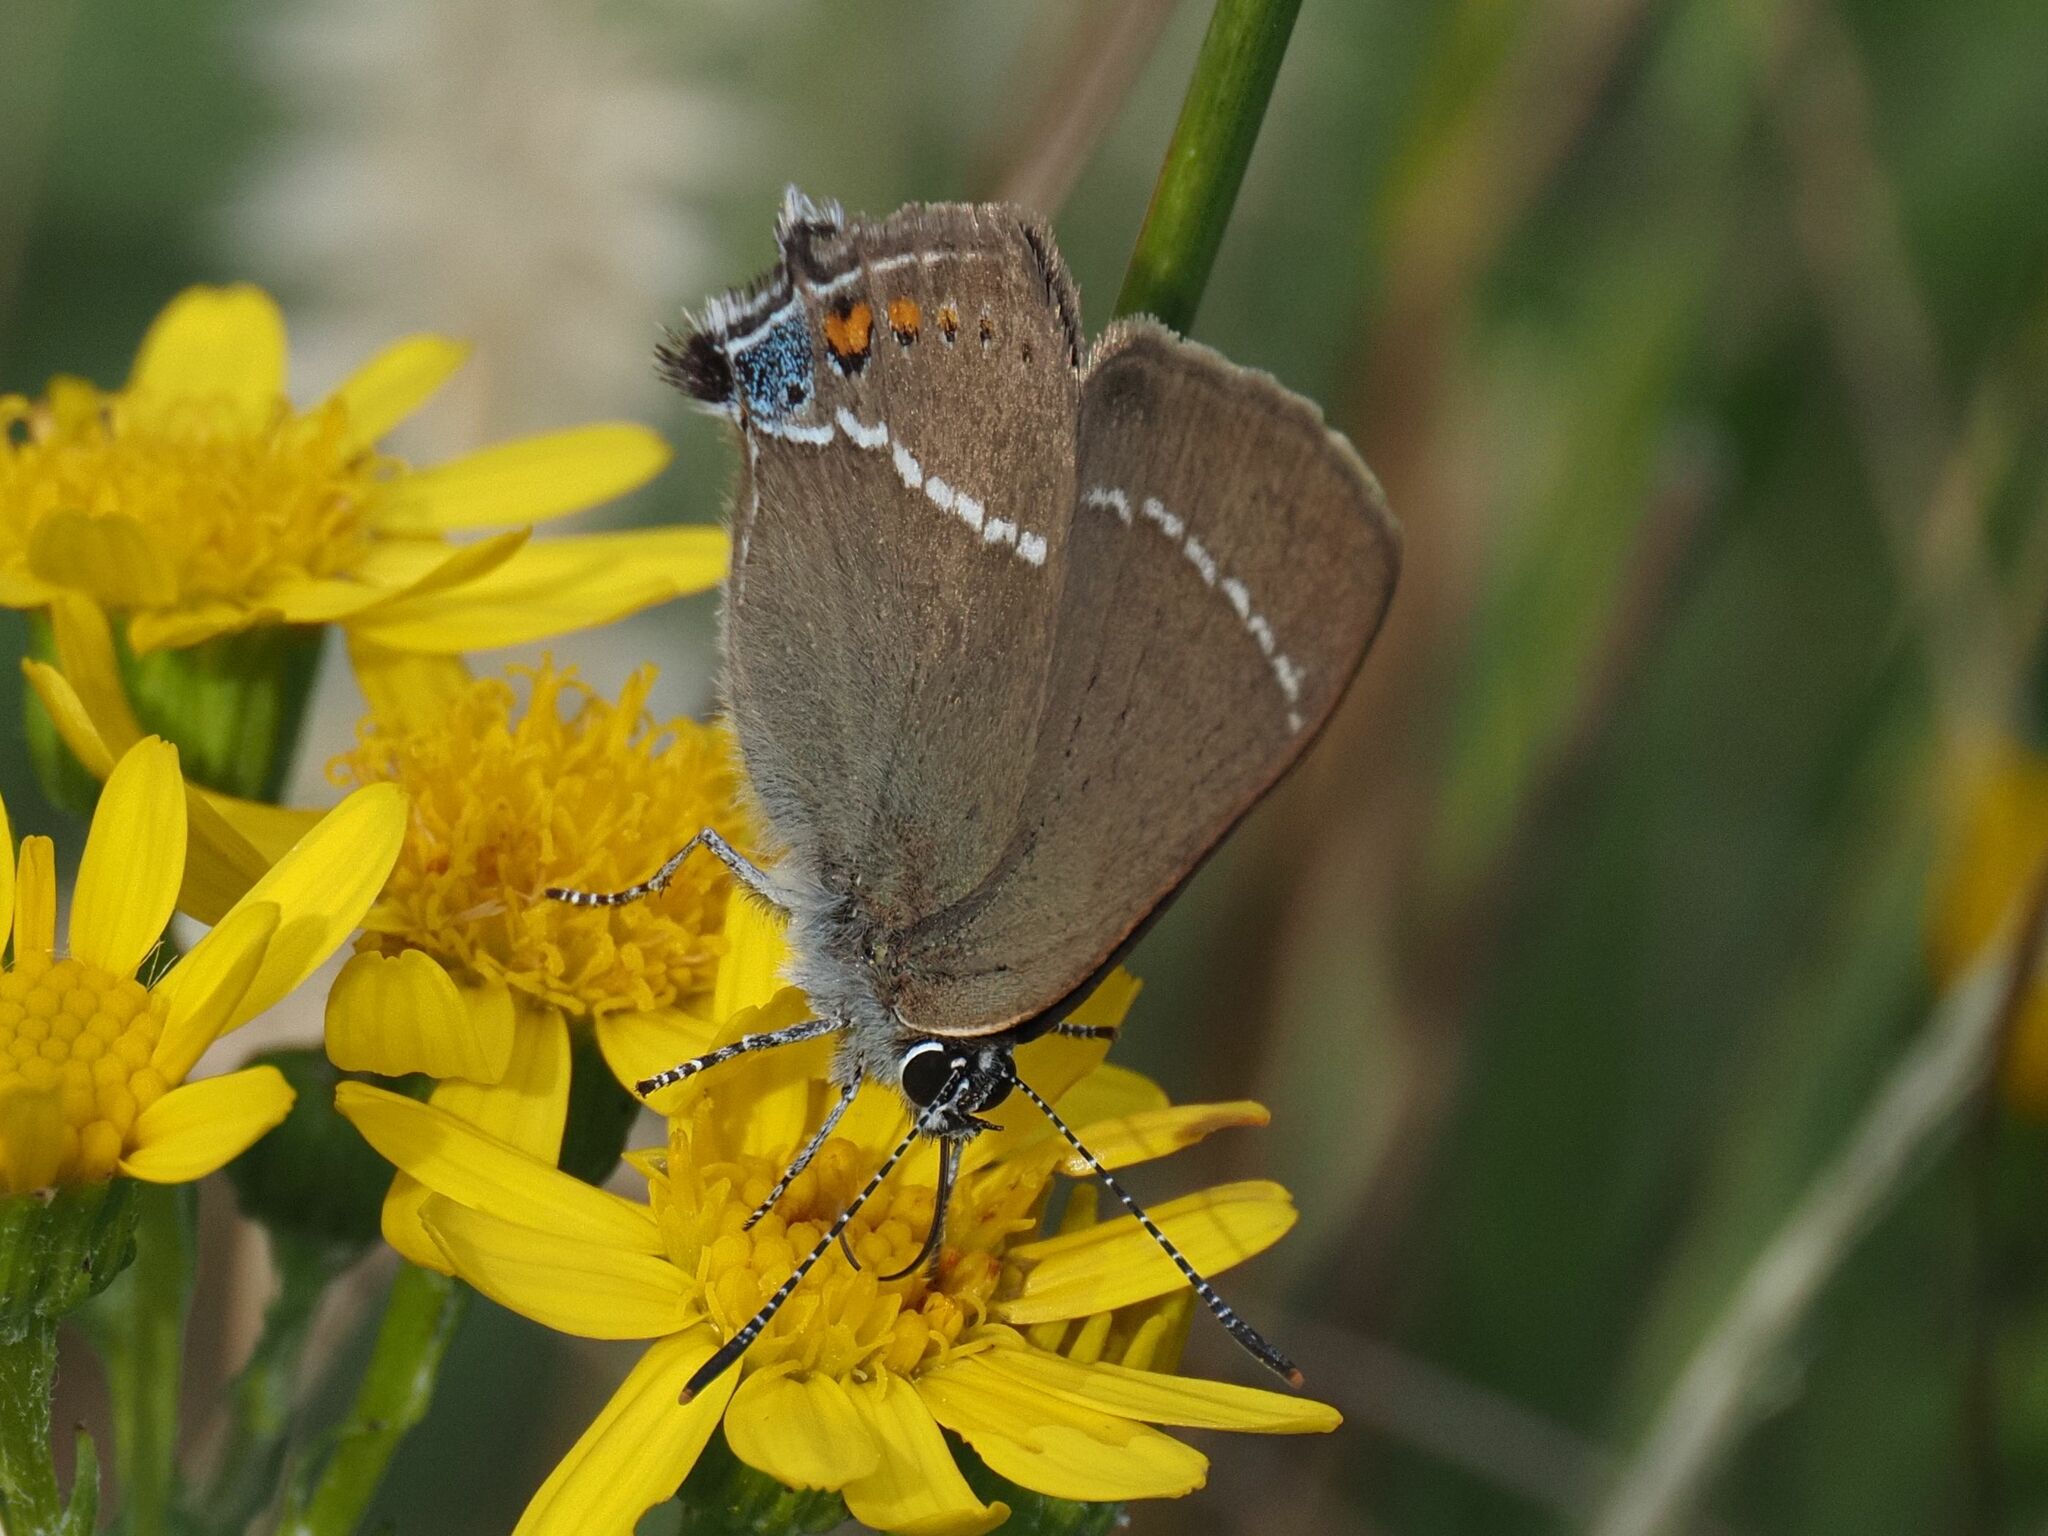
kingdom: Animalia
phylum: Arthropoda
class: Insecta
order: Lepidoptera
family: Lycaenidae
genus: Tuttiola
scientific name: Tuttiola spini
